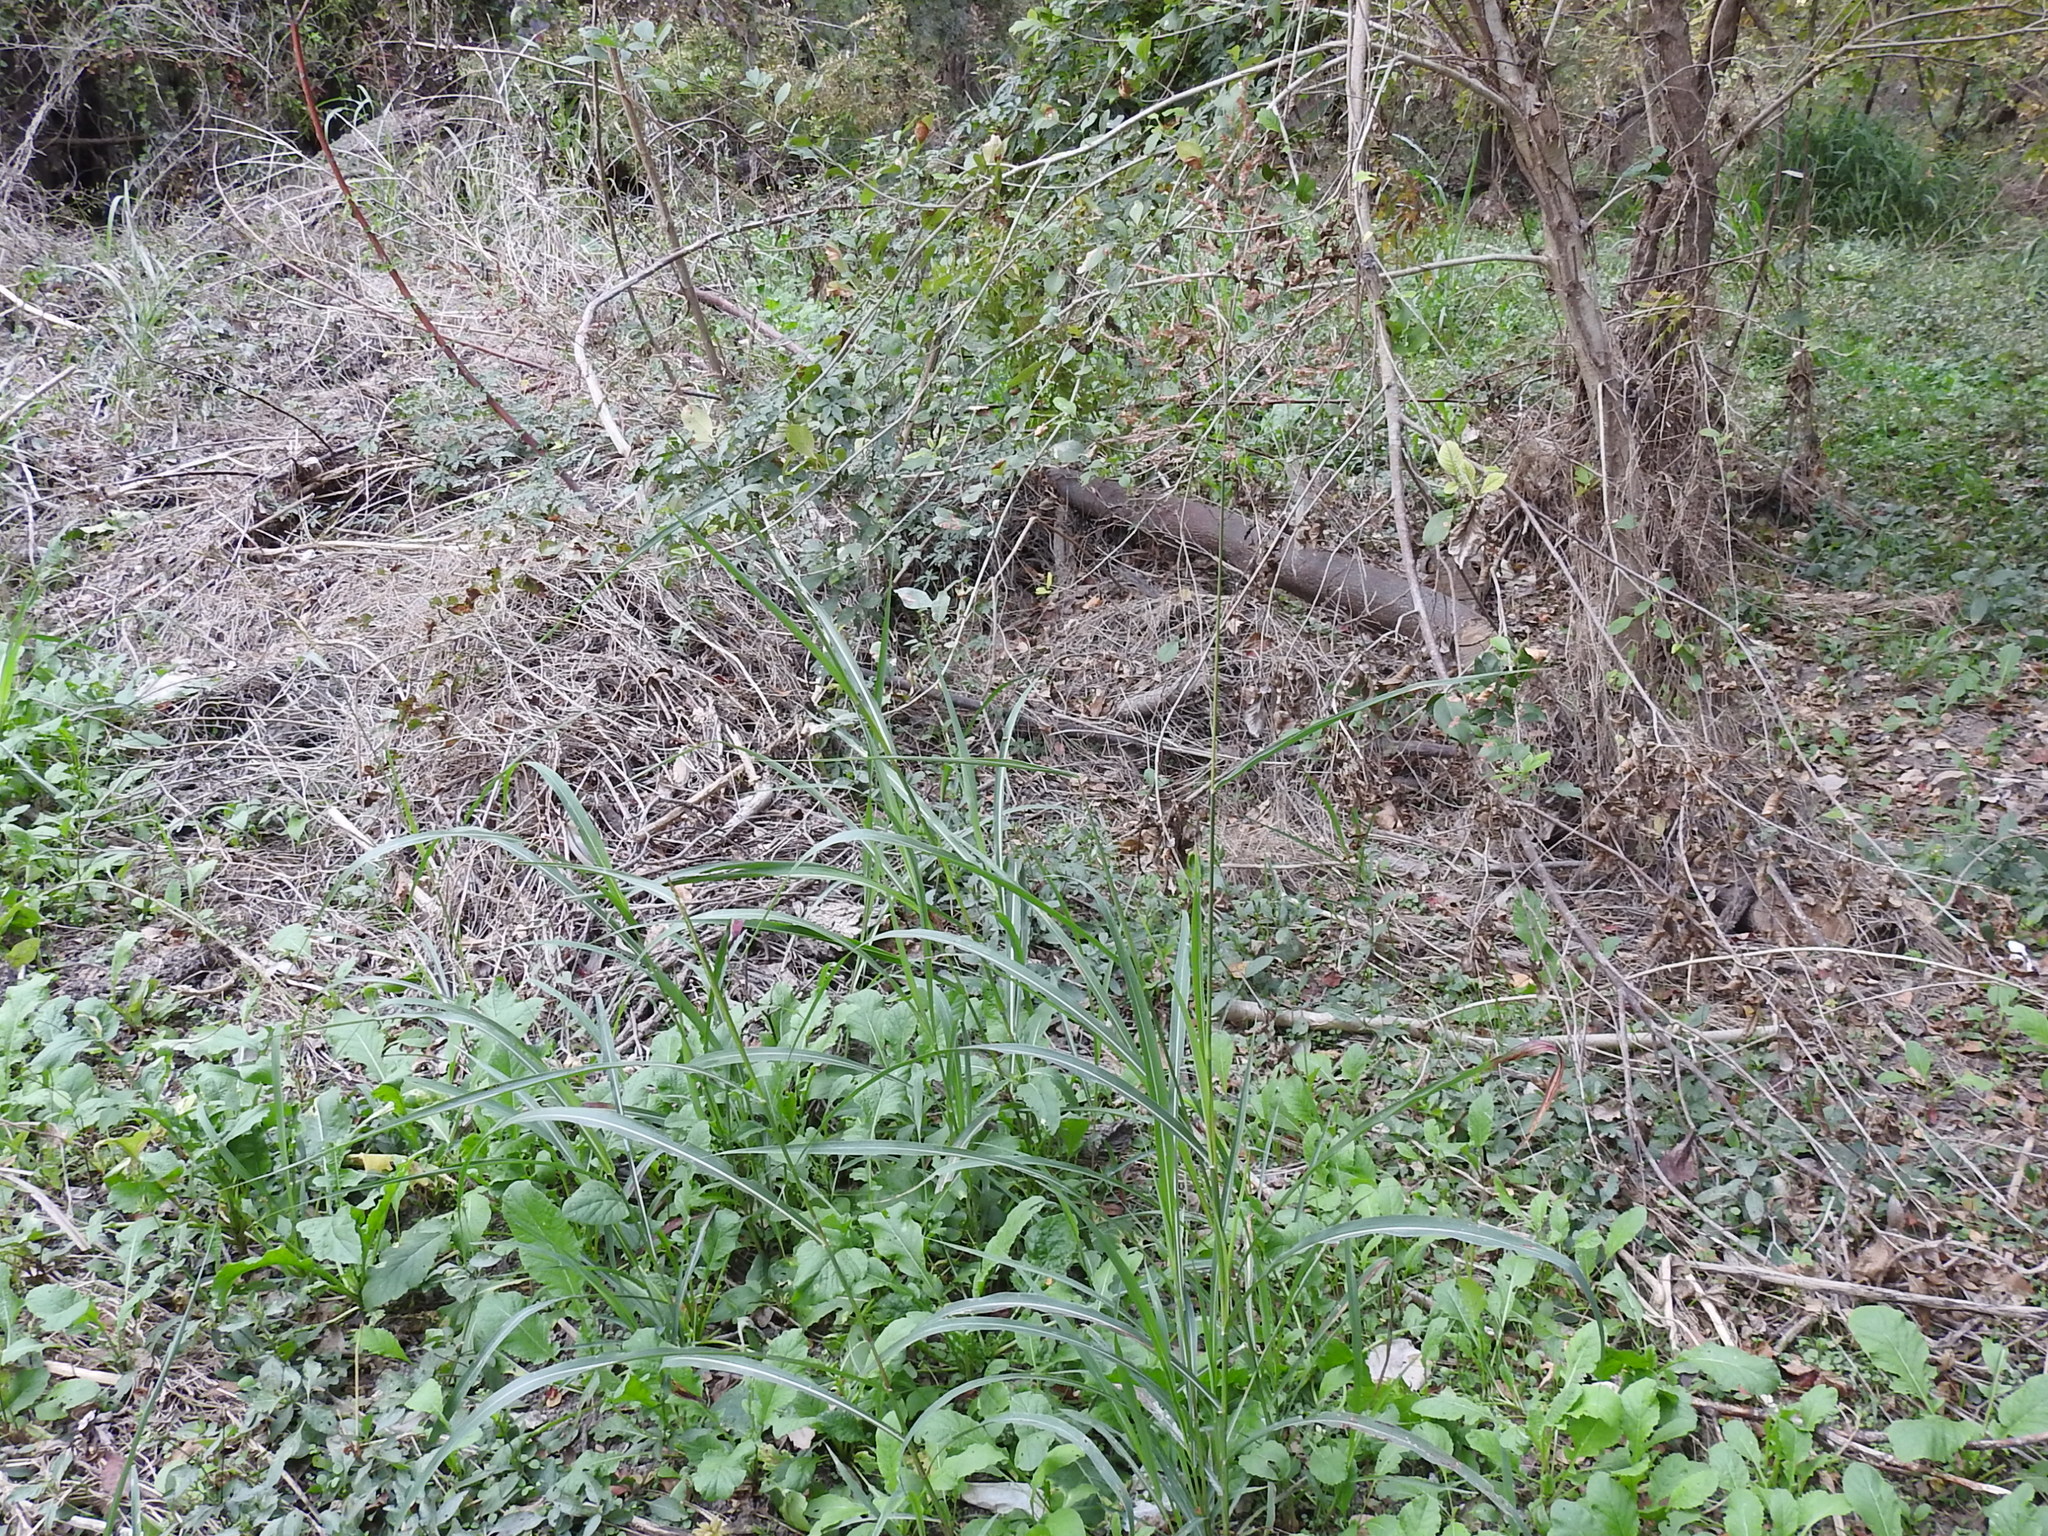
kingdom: Plantae
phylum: Tracheophyta
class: Liliopsida
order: Poales
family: Poaceae
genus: Sorghum
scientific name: Sorghum halepense
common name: Johnson-grass
